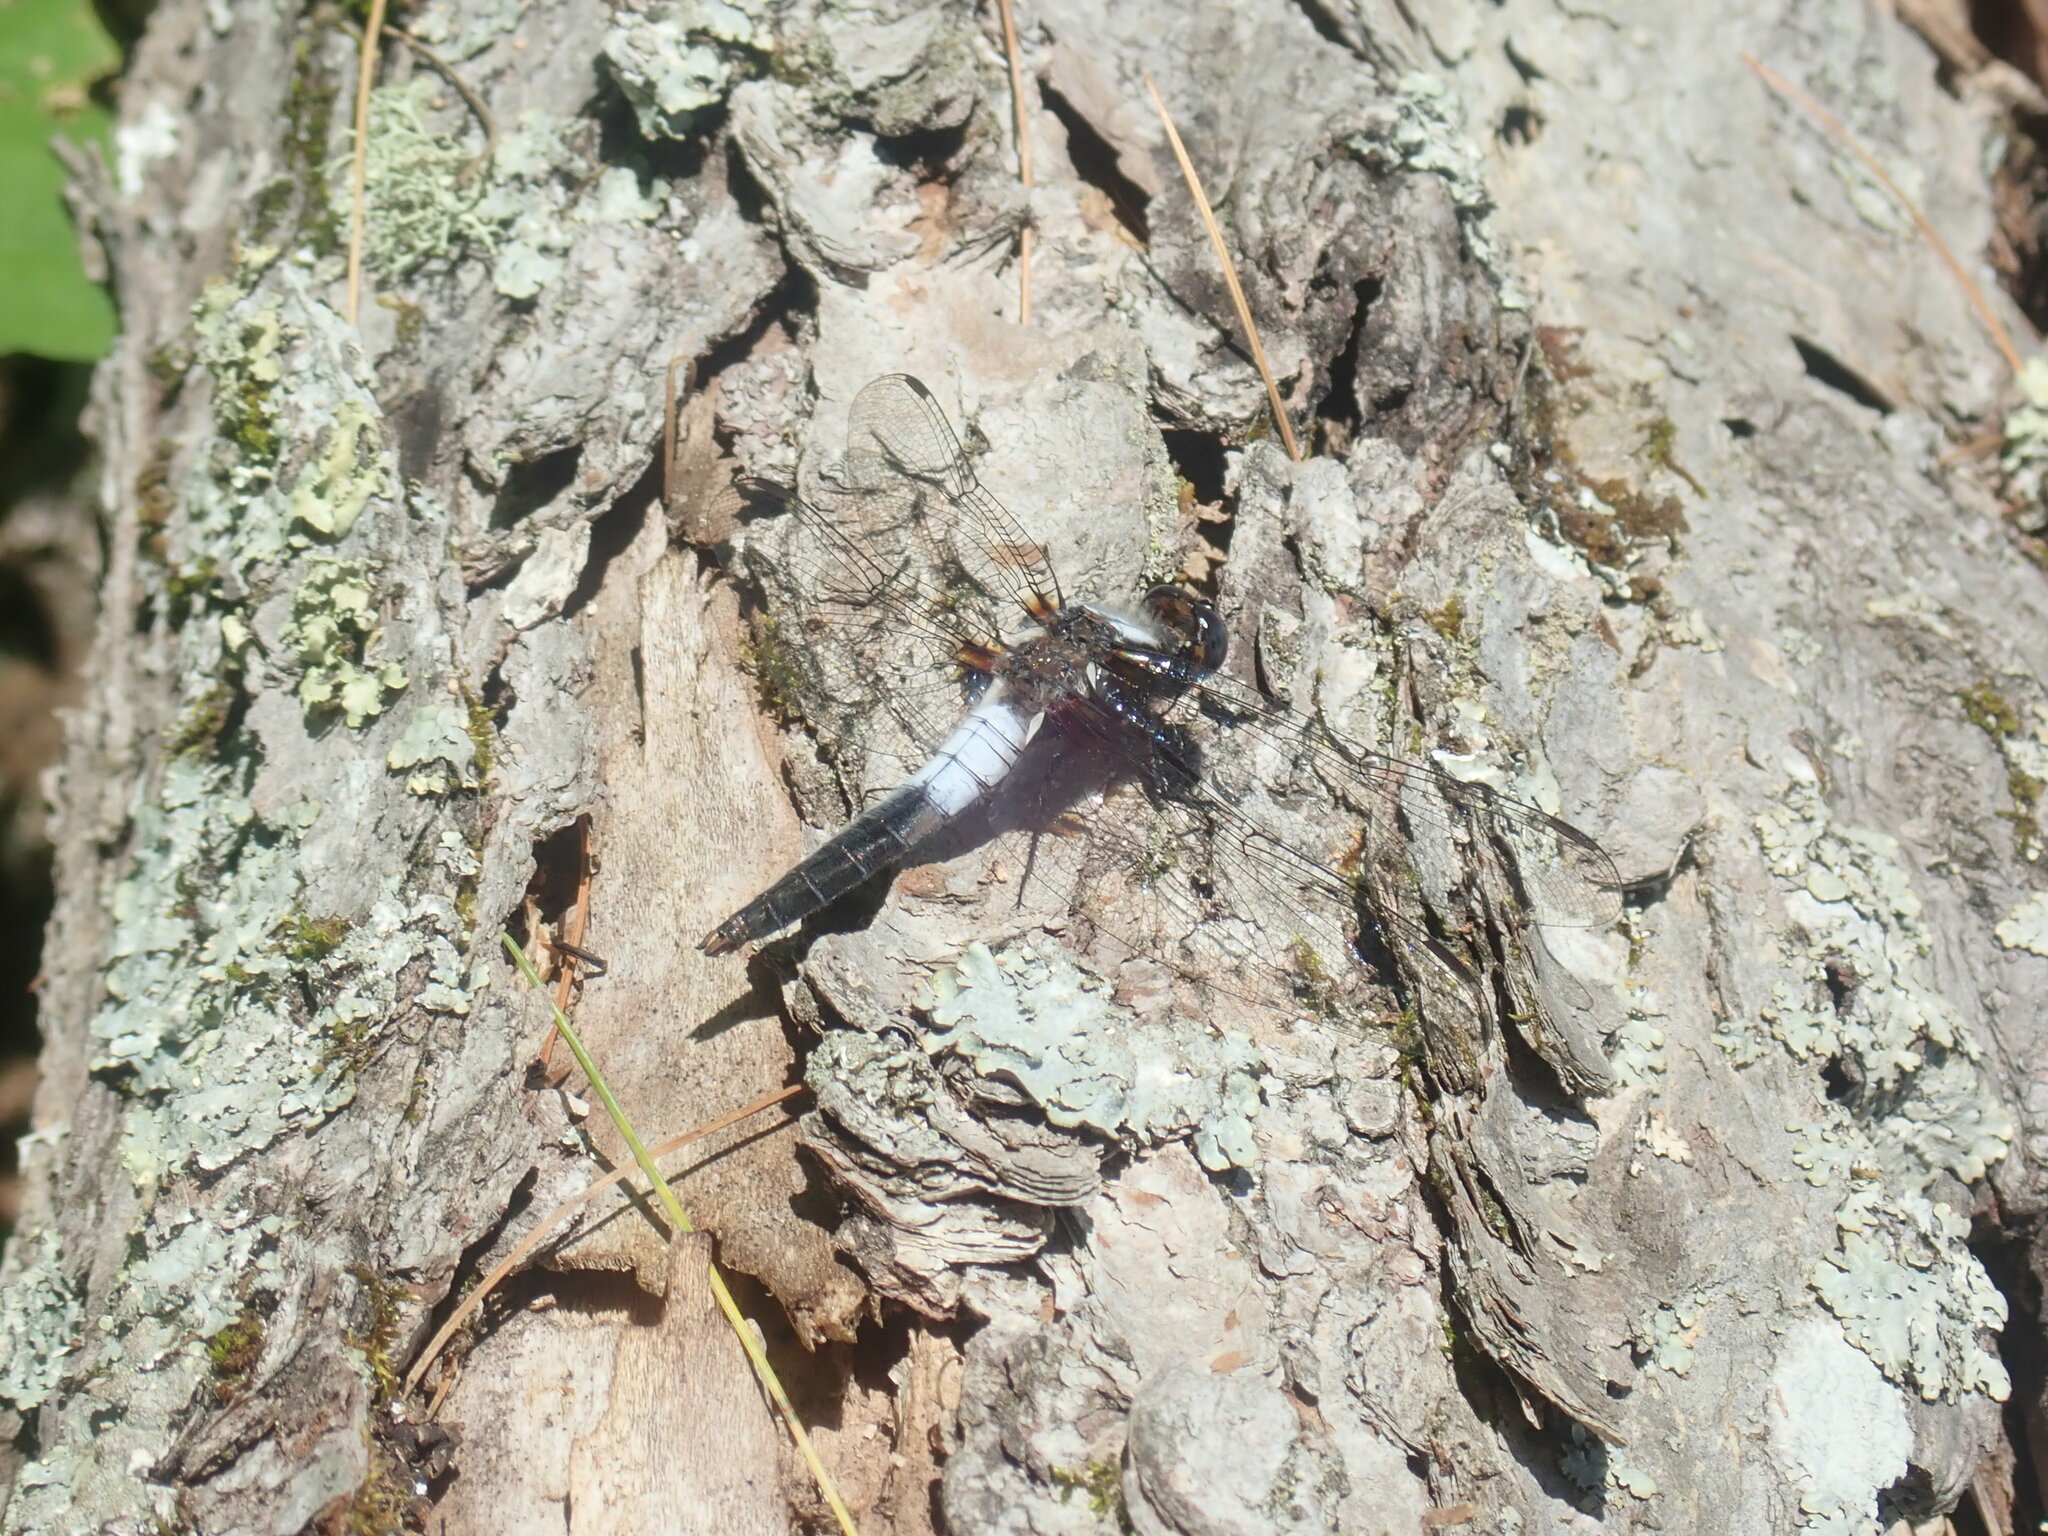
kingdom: Animalia
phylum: Arthropoda
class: Insecta
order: Odonata
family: Libellulidae
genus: Ladona
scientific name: Ladona julia
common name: Chalk-fronted corporal
